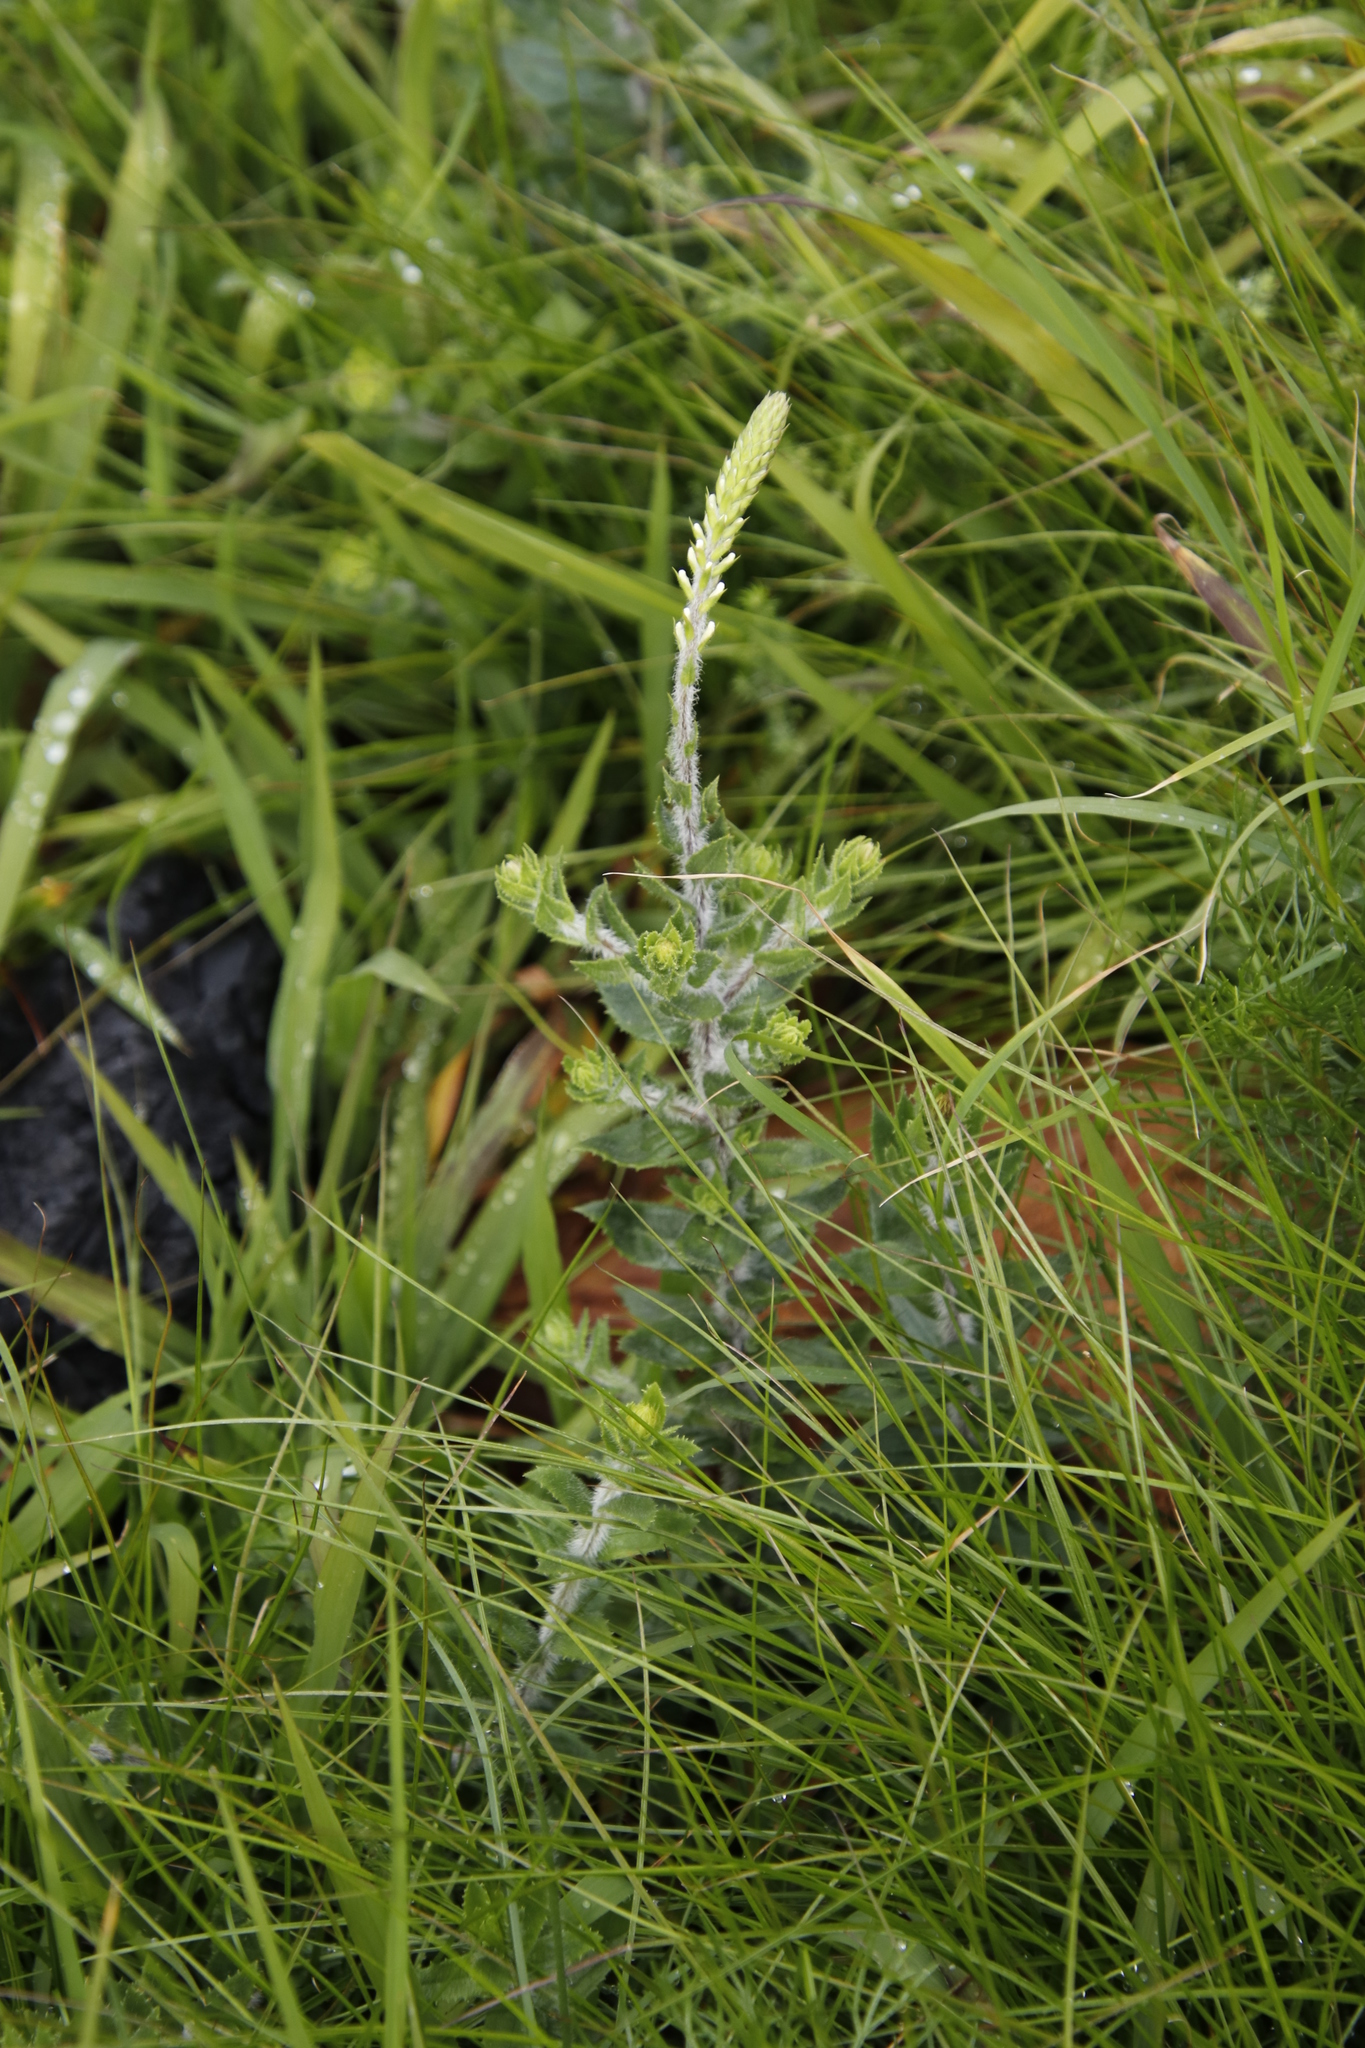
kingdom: Plantae
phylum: Tracheophyta
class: Magnoliopsida
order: Lamiales
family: Scrophulariaceae
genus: Hebenstretia
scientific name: Hebenstretia lanceolata
